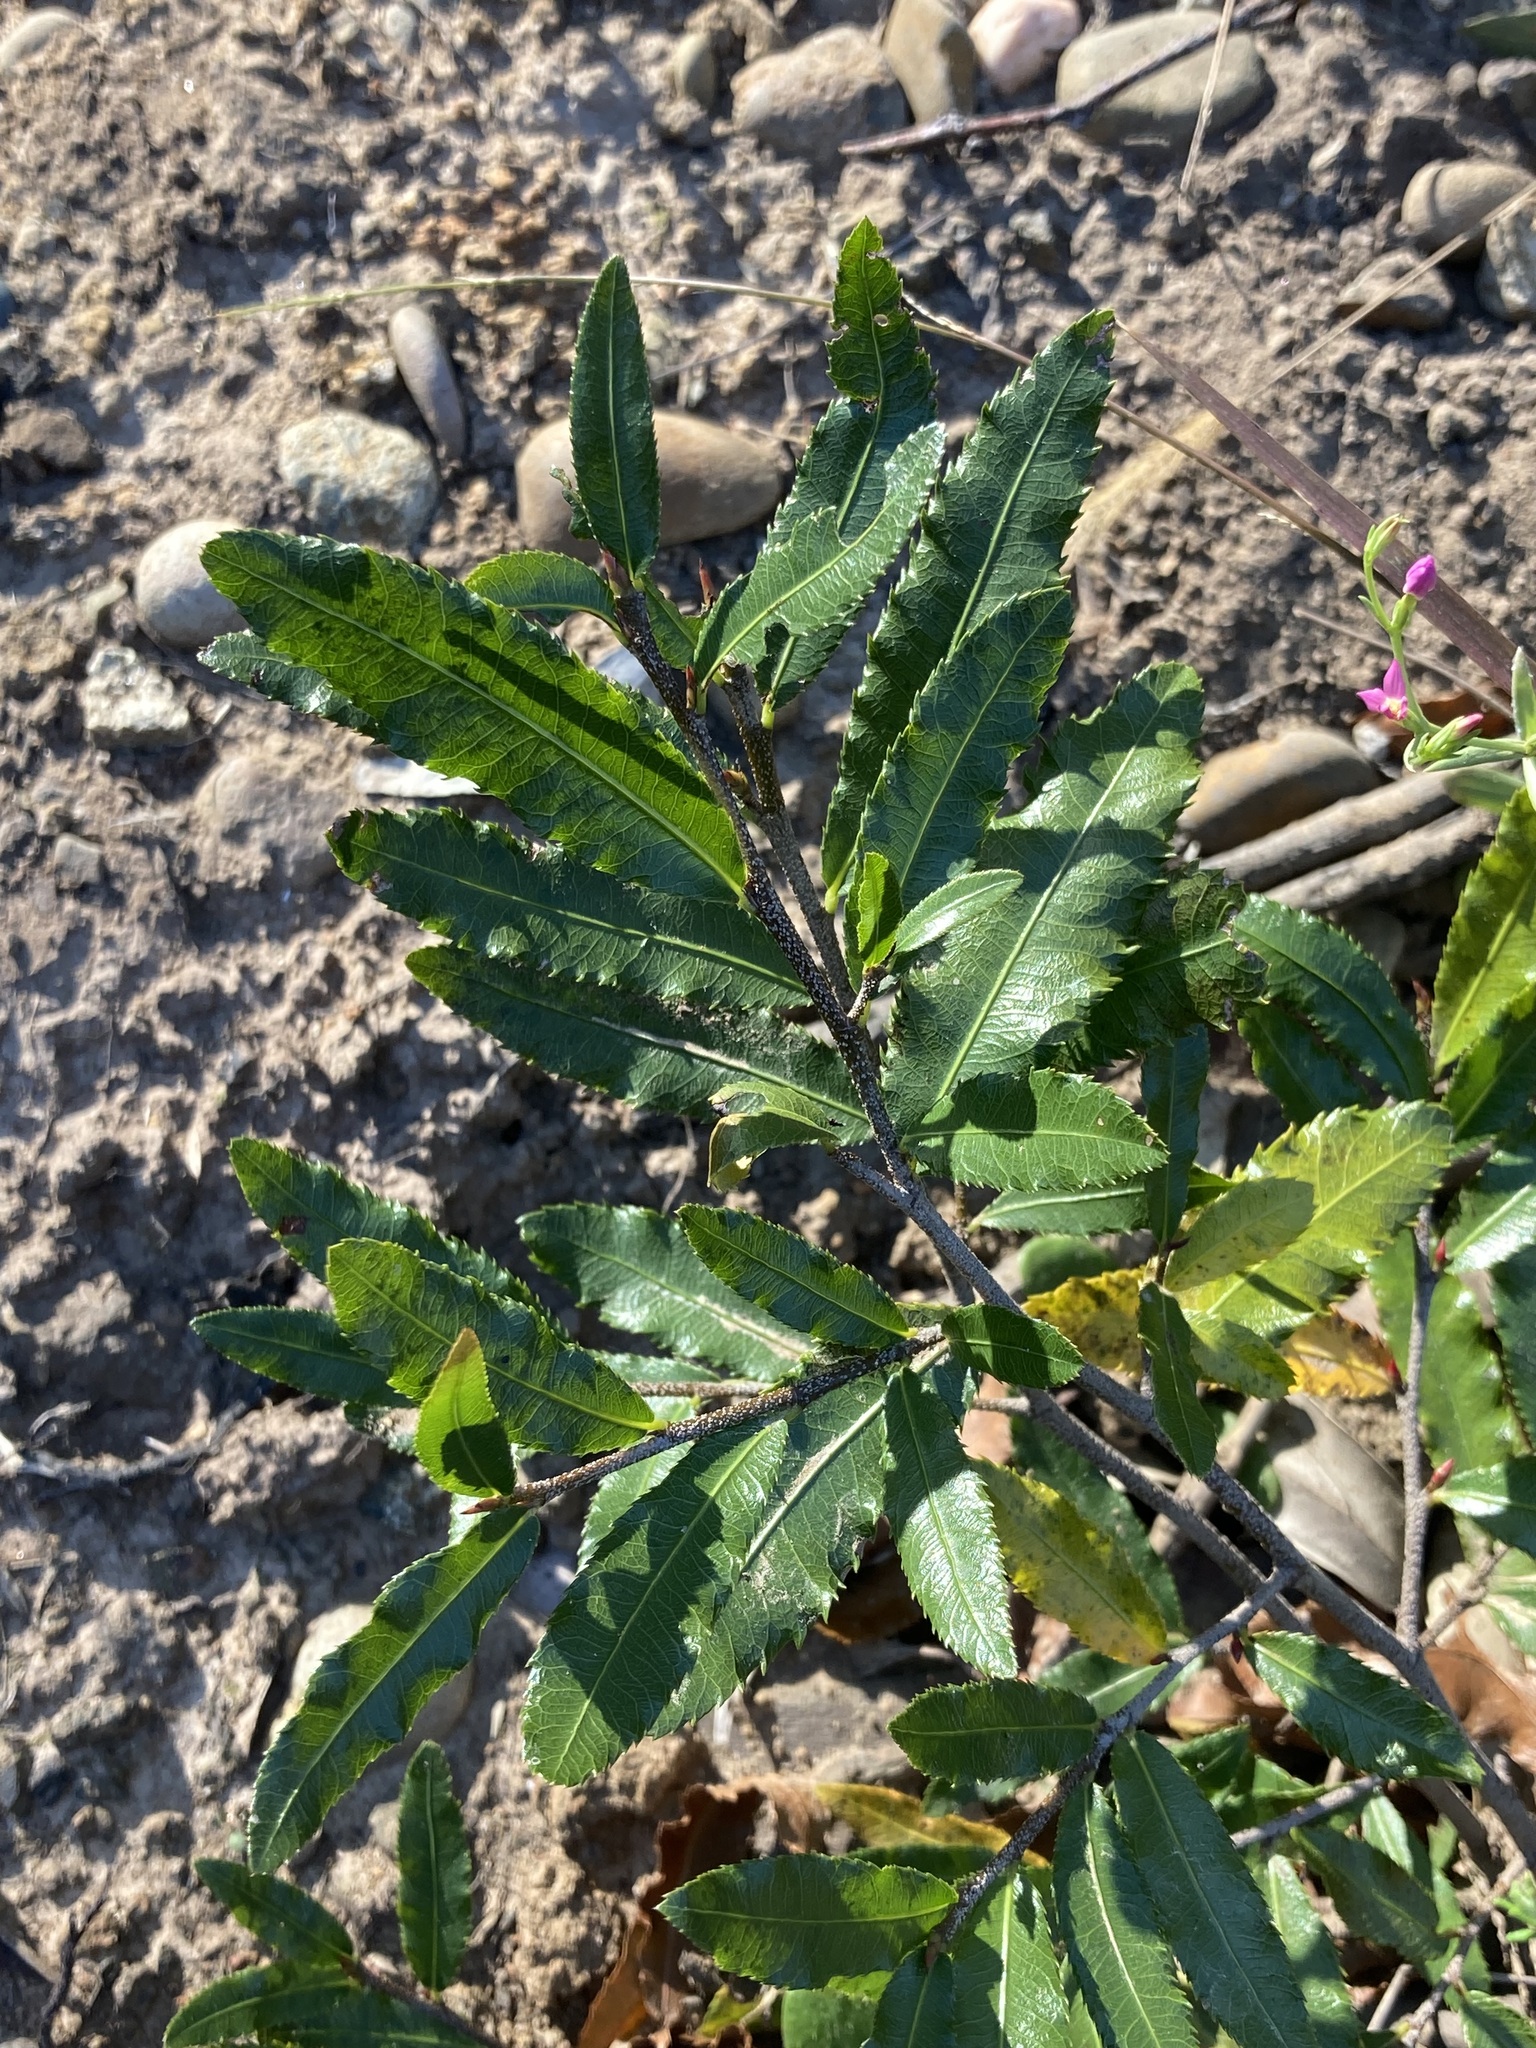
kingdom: Plantae
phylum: Tracheophyta
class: Magnoliopsida
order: Malpighiales
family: Ochnaceae
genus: Ochna
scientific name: Ochna serrulata
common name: Mickey mouse plant
